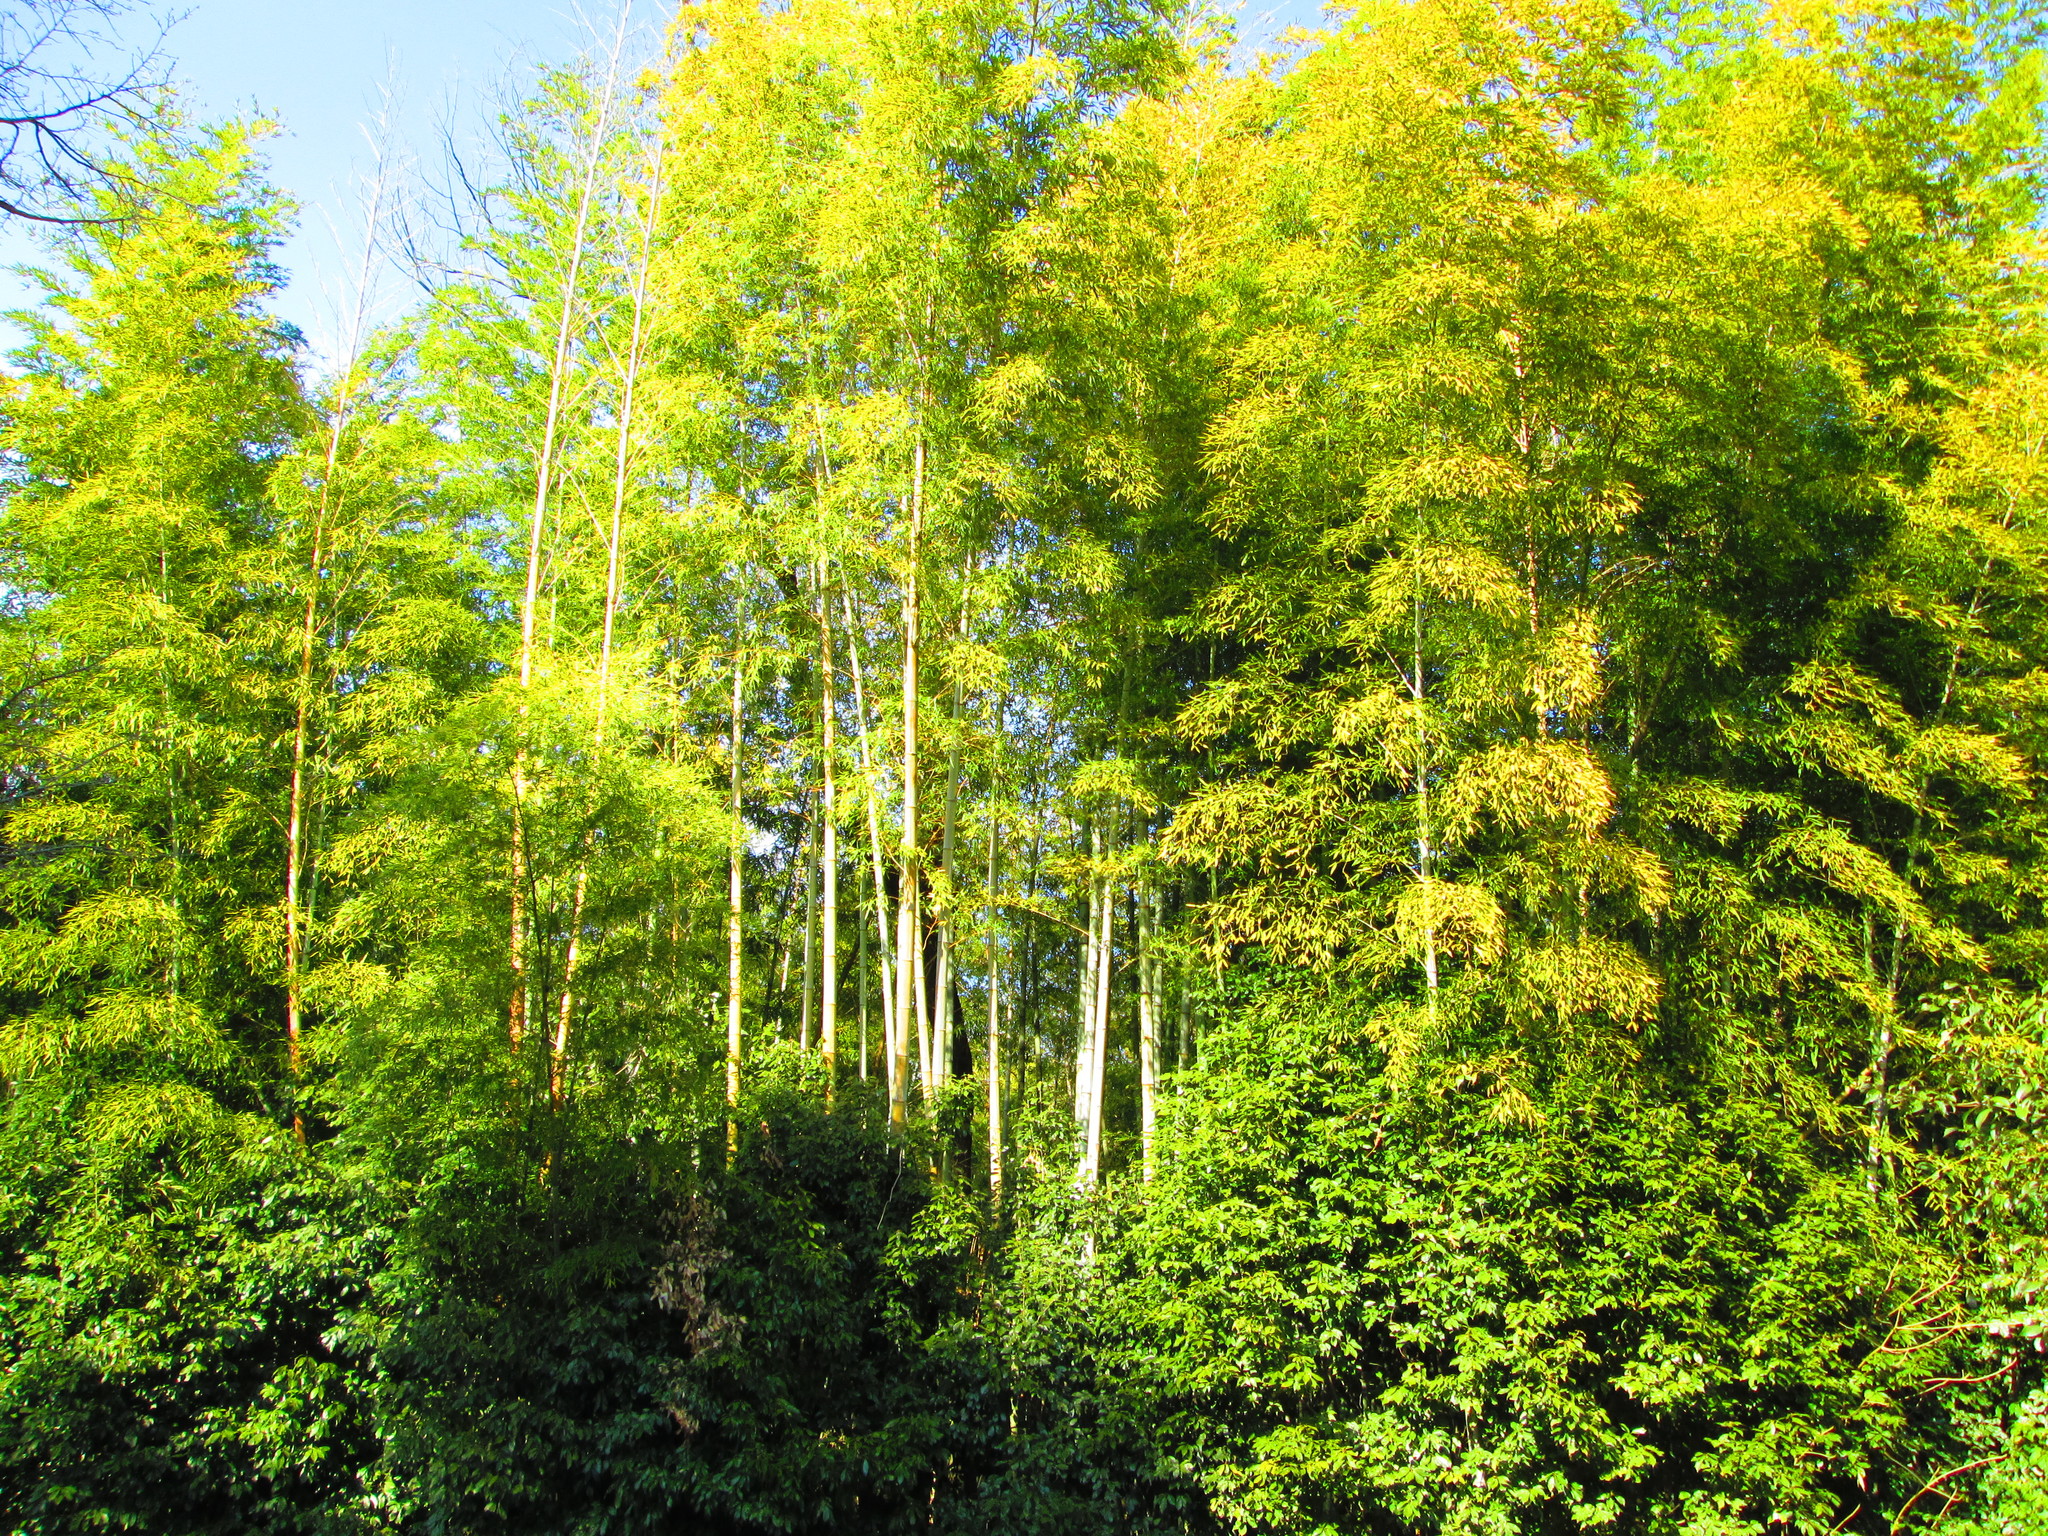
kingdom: Plantae
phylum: Tracheophyta
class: Liliopsida
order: Poales
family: Poaceae
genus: Phyllostachys
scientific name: Phyllostachys edulis
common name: Tortoise shell bamboo
